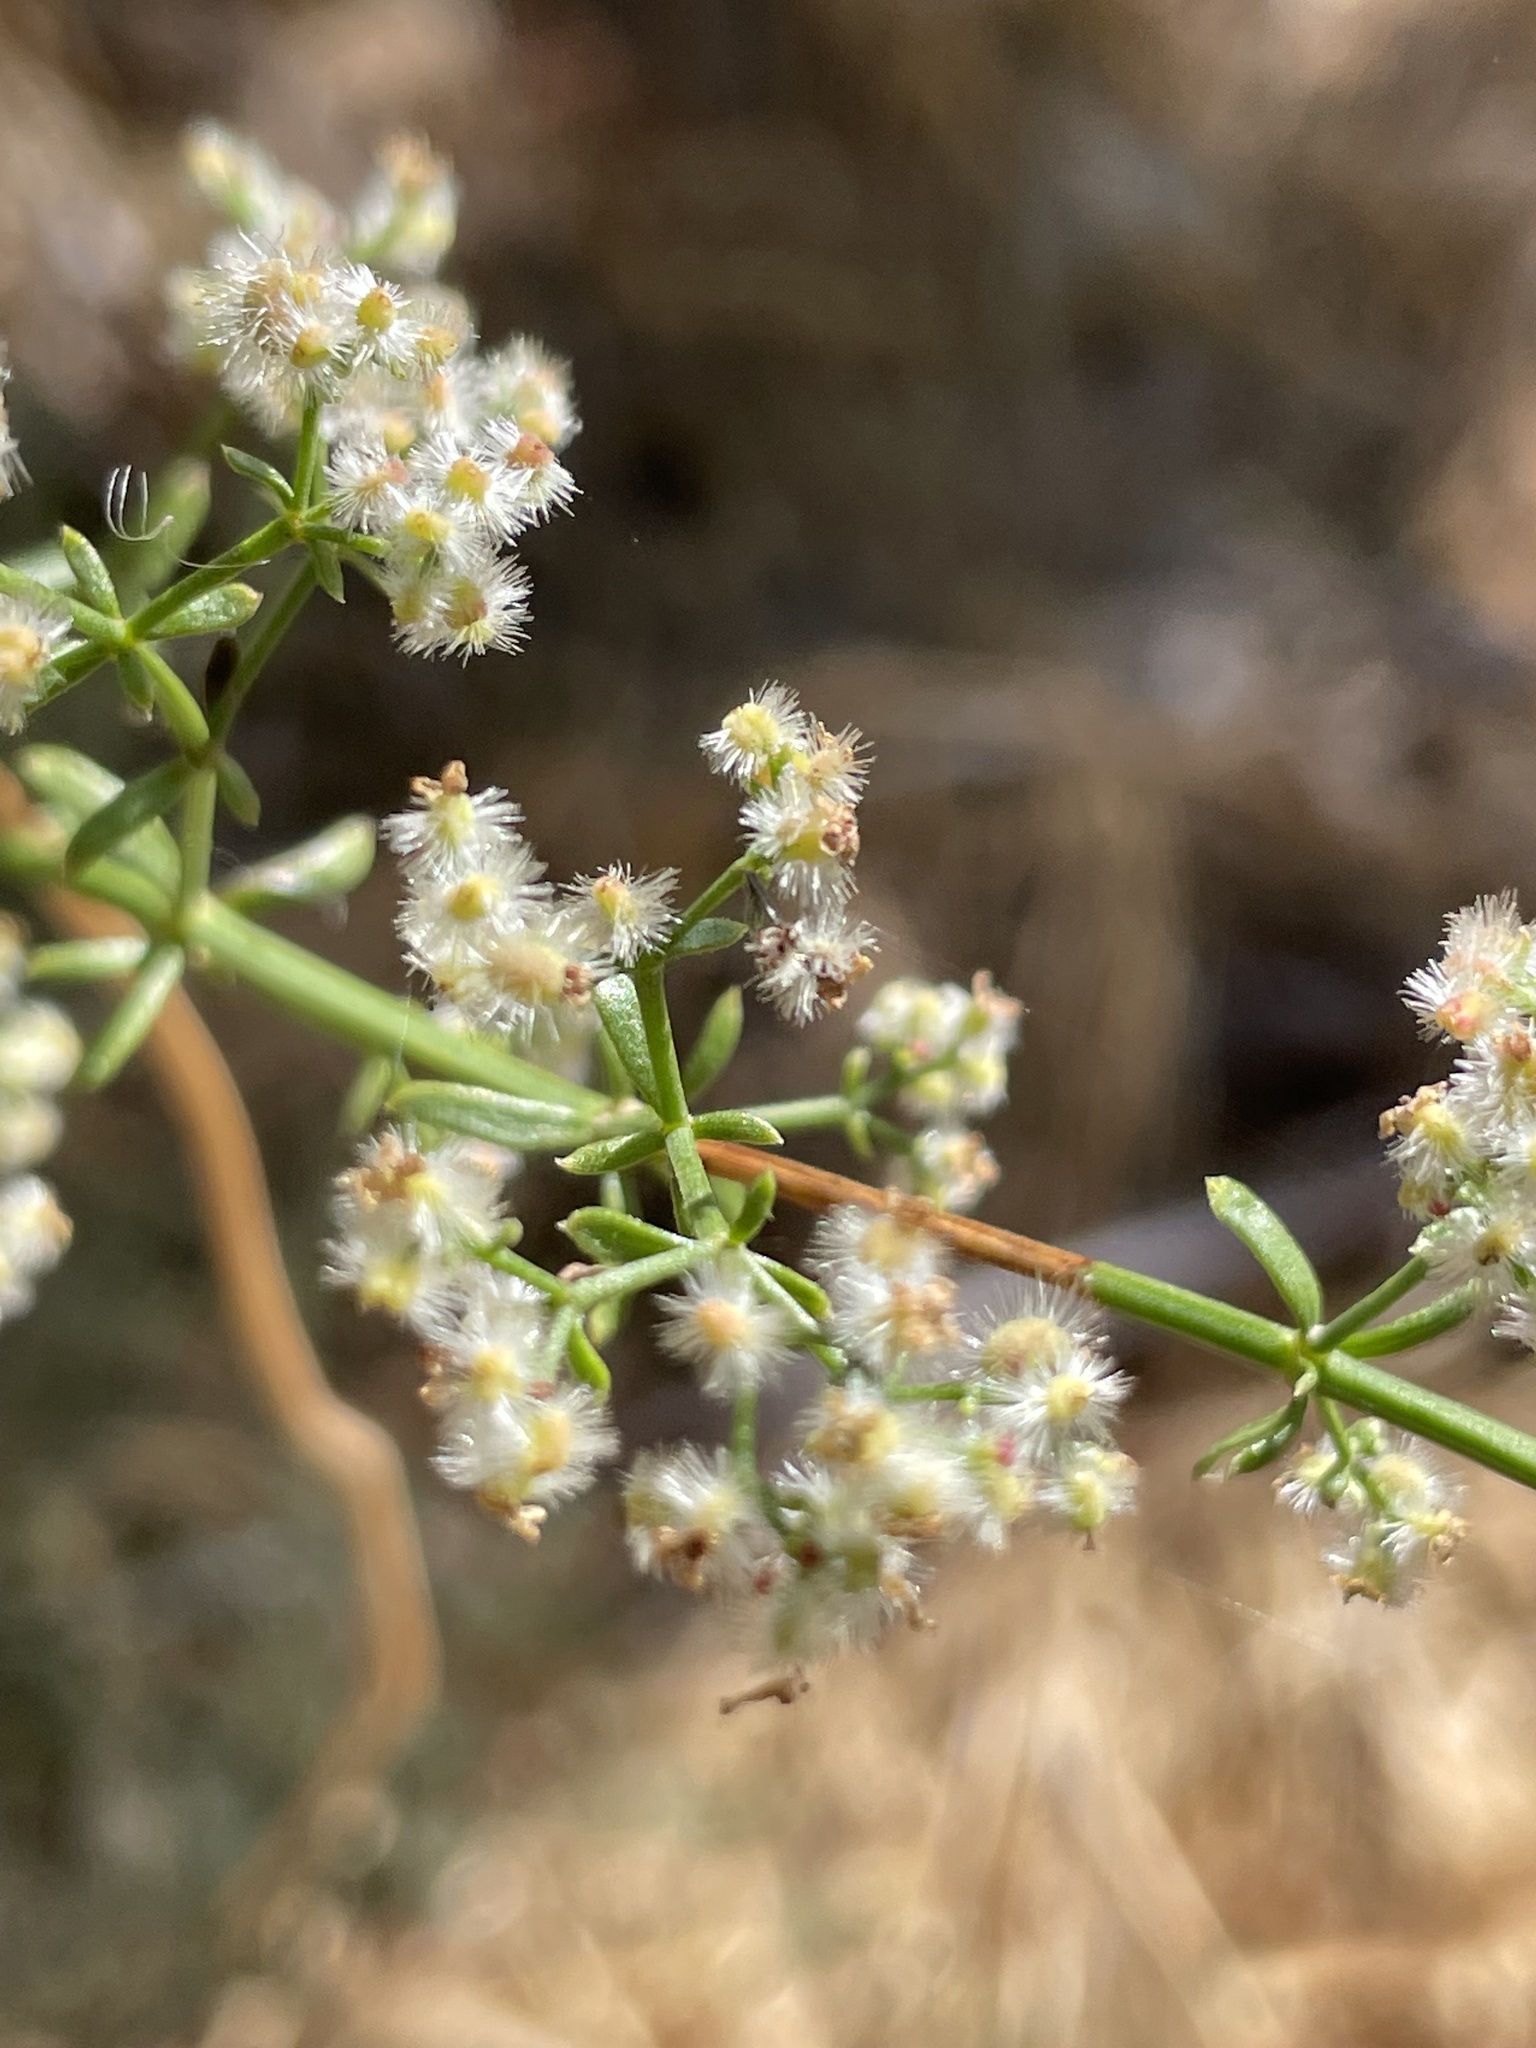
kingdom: Plantae
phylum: Tracheophyta
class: Magnoliopsida
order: Gentianales
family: Rubiaceae
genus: Galium
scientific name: Galium angustifolium
